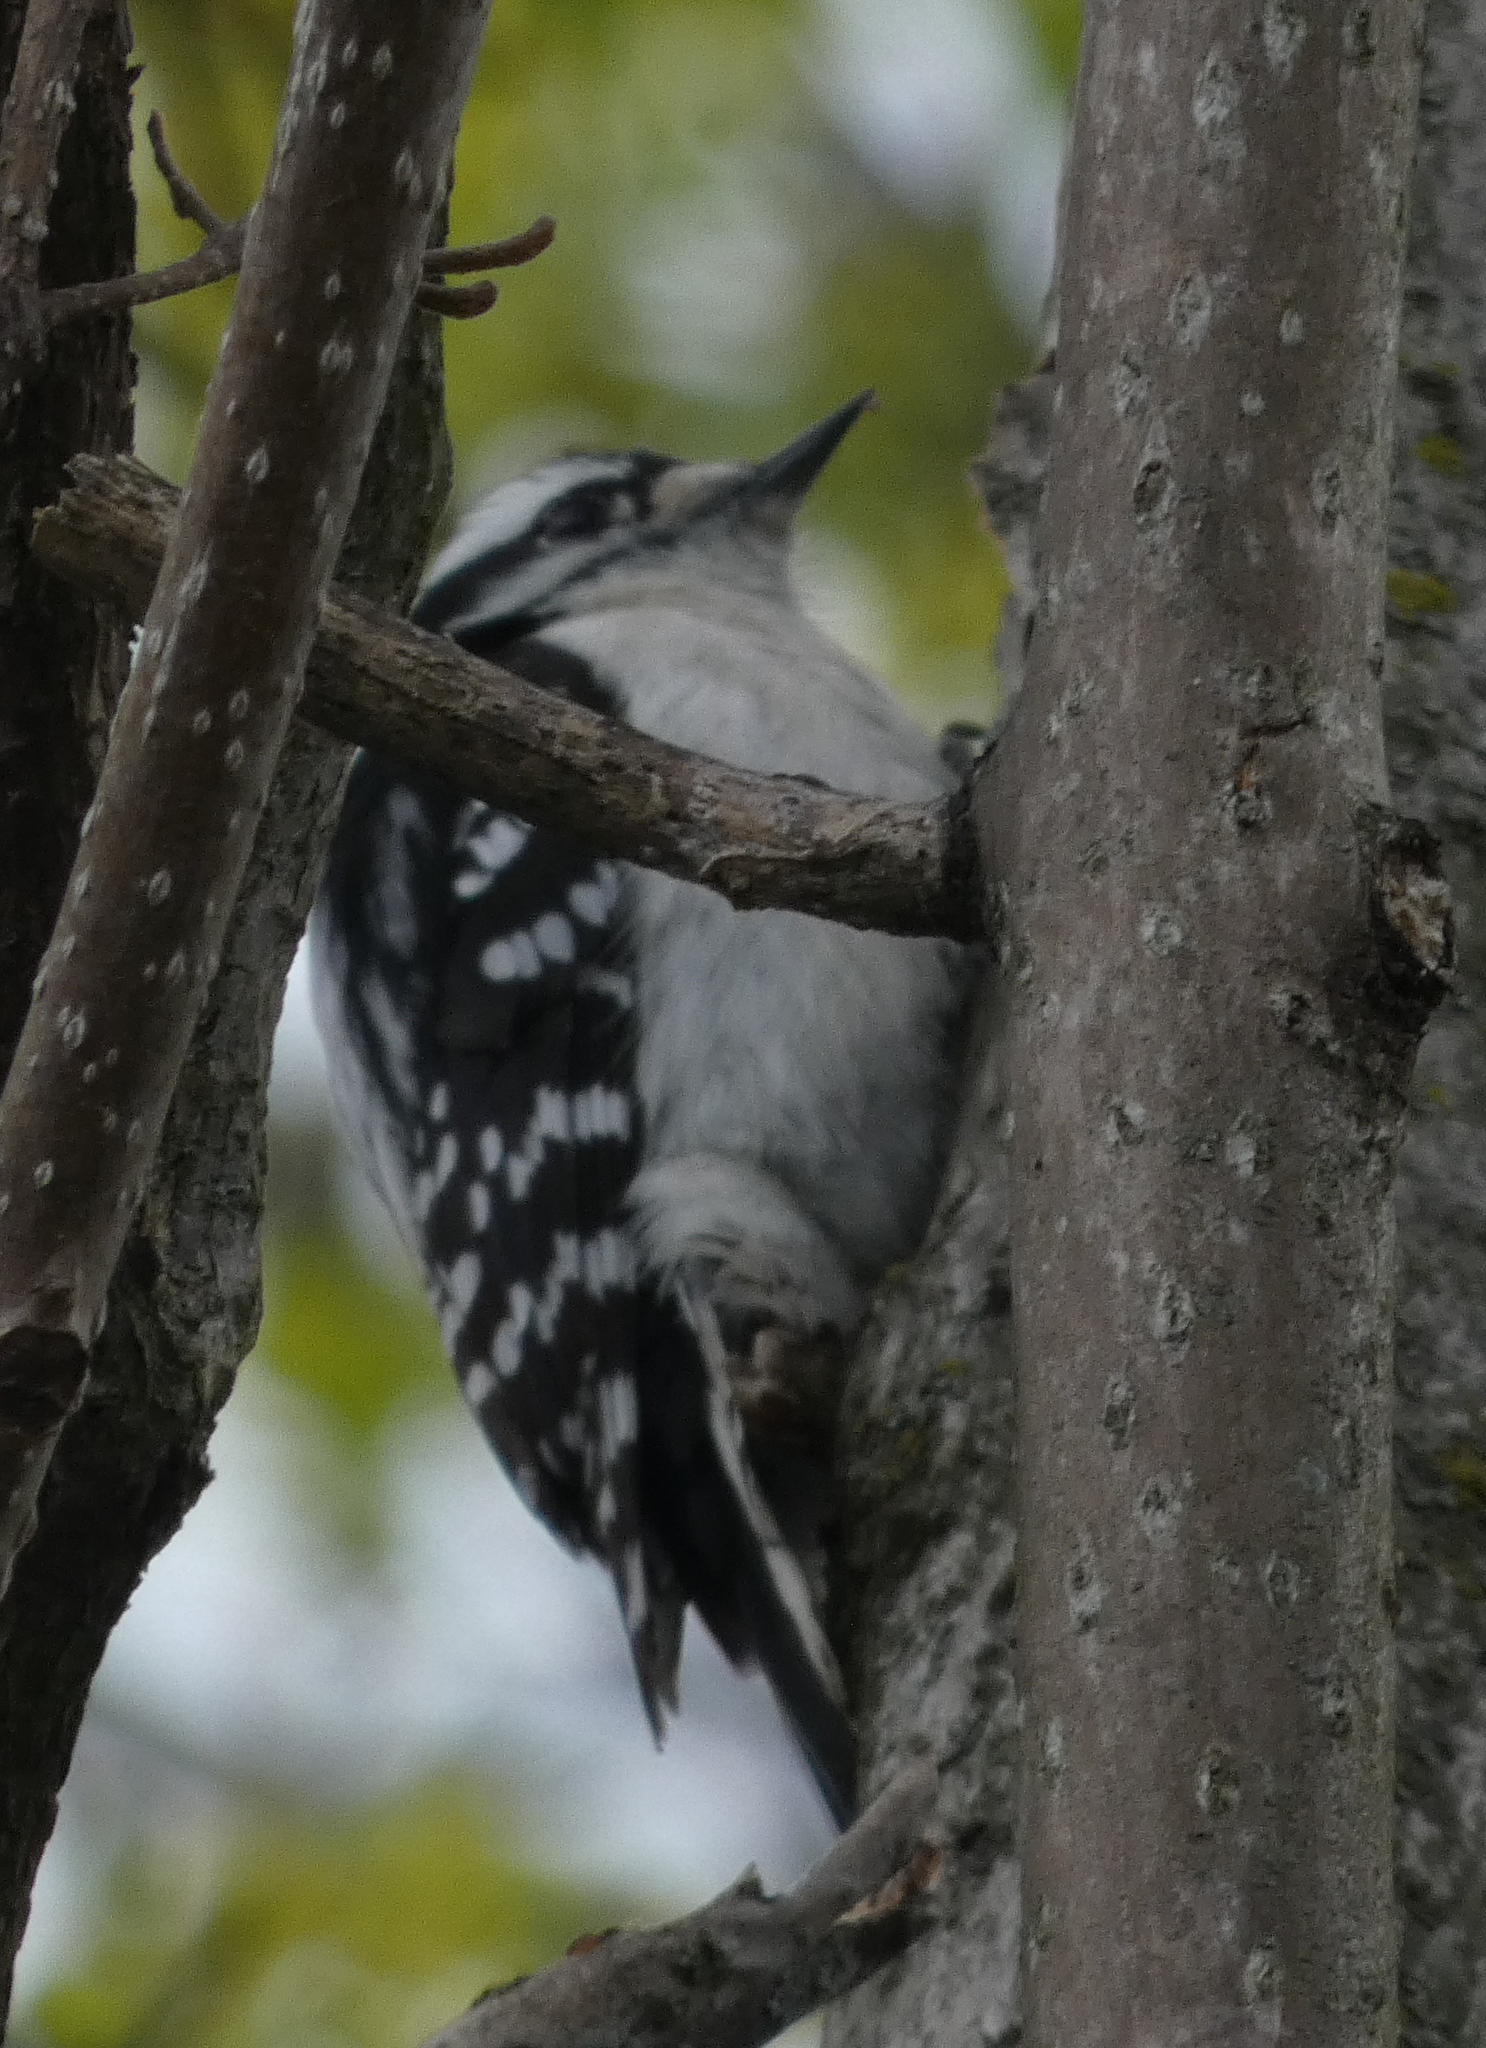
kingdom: Animalia
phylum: Chordata
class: Aves
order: Piciformes
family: Picidae
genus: Dryobates
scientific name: Dryobates pubescens
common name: Downy woodpecker
